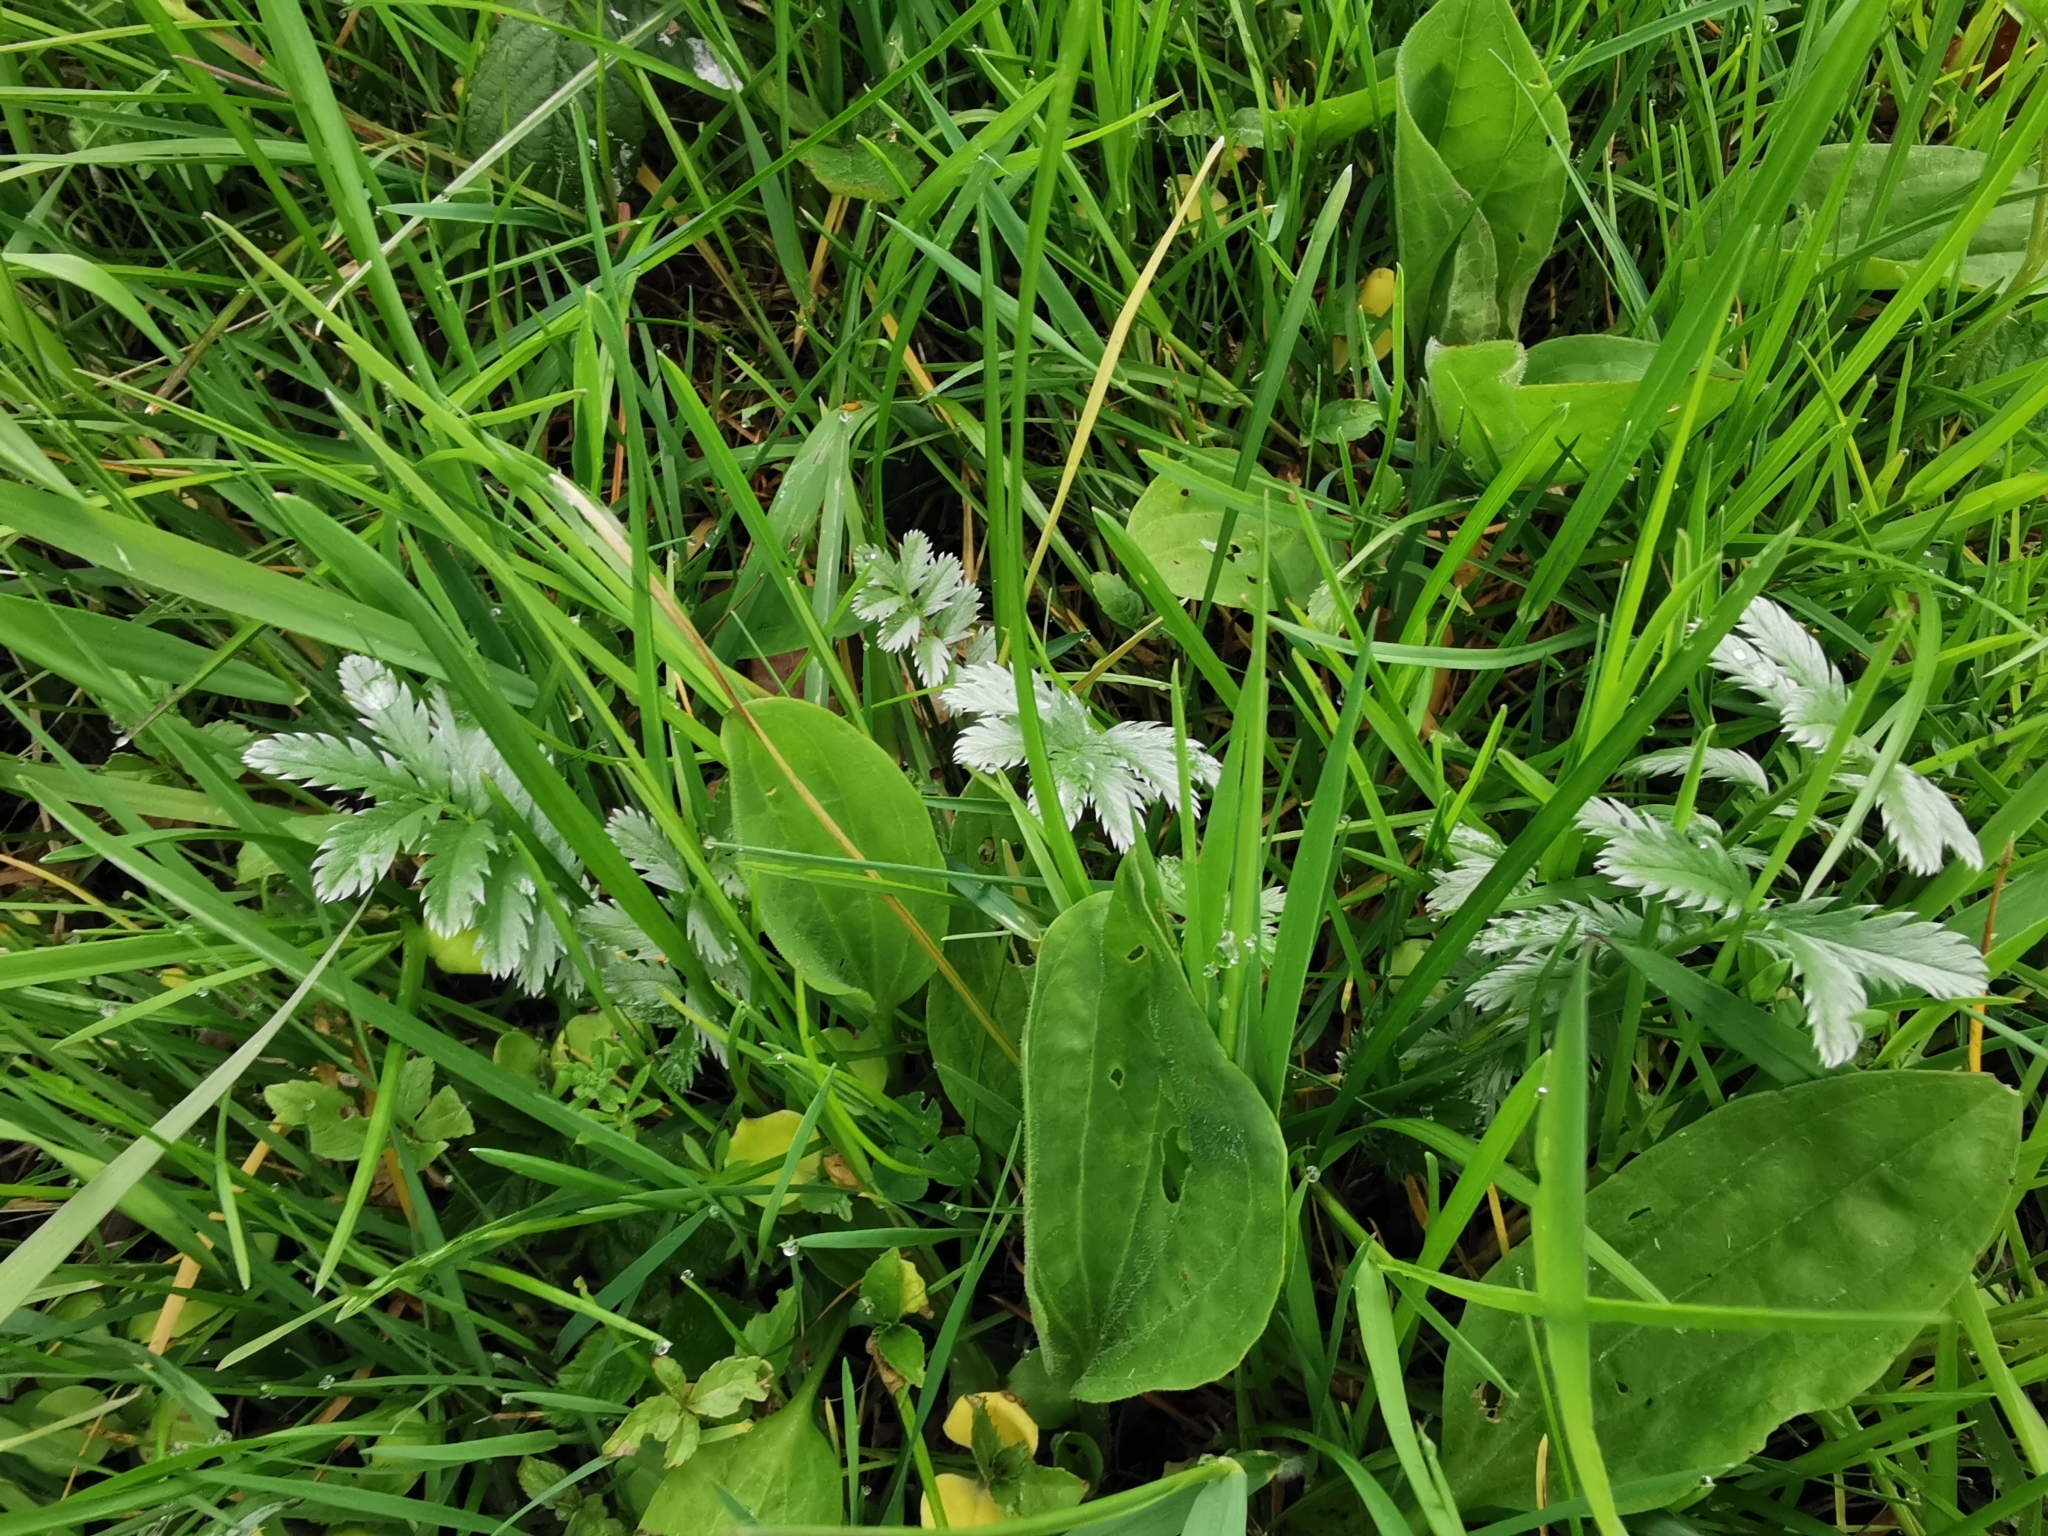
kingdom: Plantae
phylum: Tracheophyta
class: Magnoliopsida
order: Rosales
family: Rosaceae
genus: Argentina
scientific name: Argentina anserina
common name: Common silverweed
